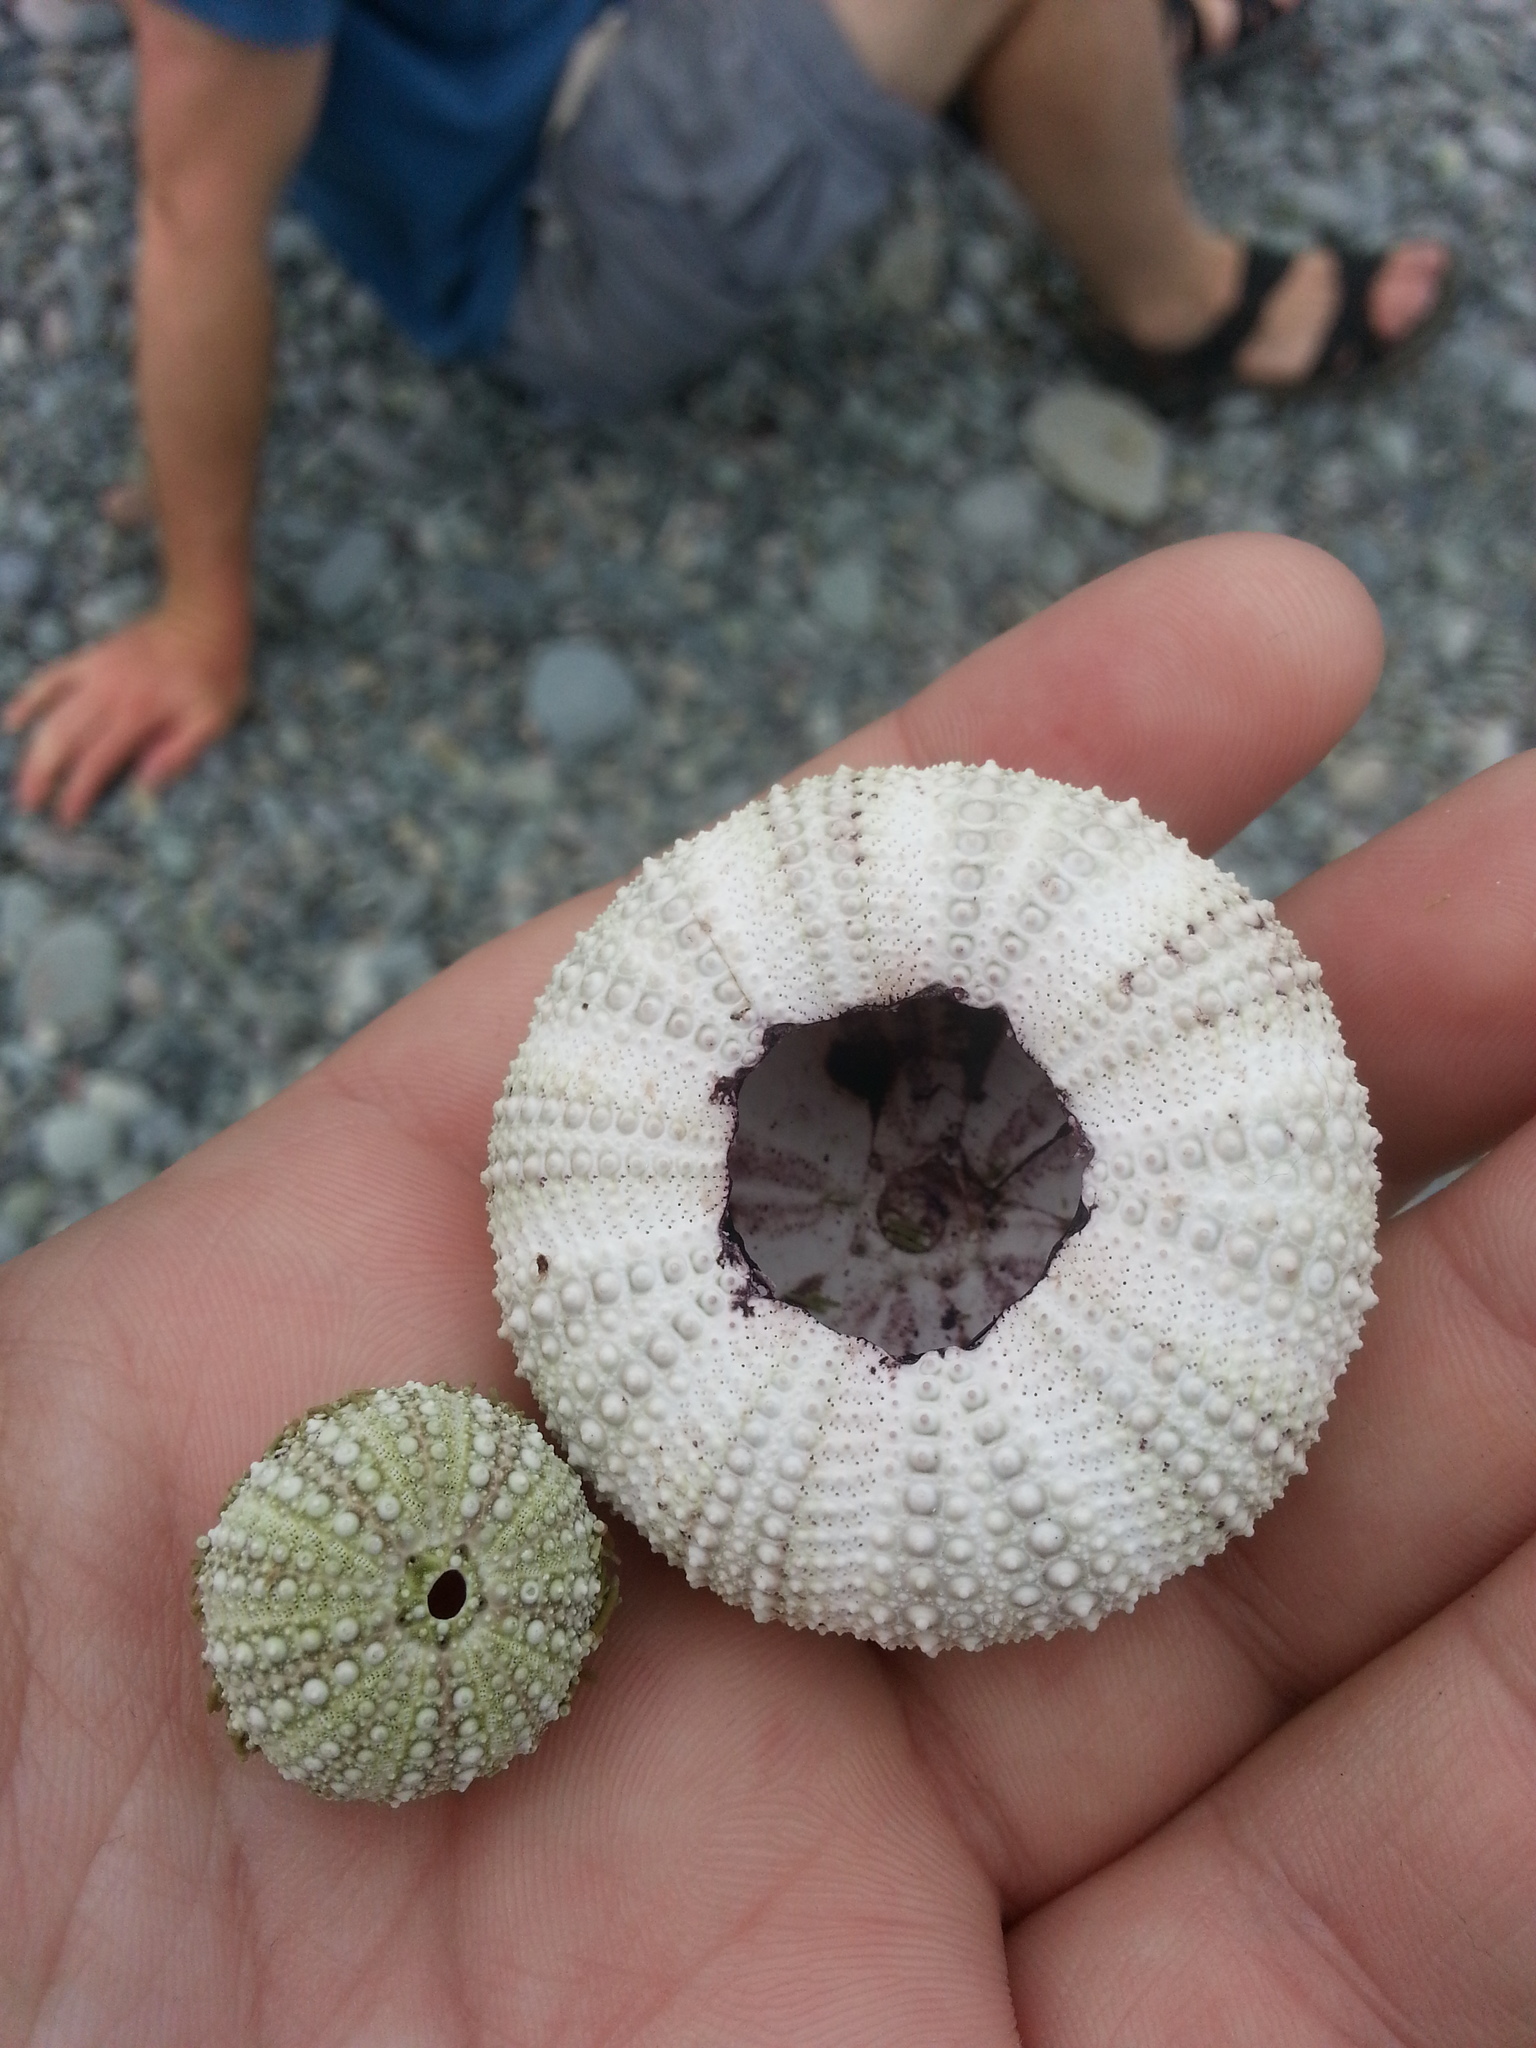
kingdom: Animalia
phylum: Echinodermata
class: Echinoidea
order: Camarodonta
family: Strongylocentrotidae
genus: Strongylocentrotus
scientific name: Strongylocentrotus droebachiensis
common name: Northern sea urchin
